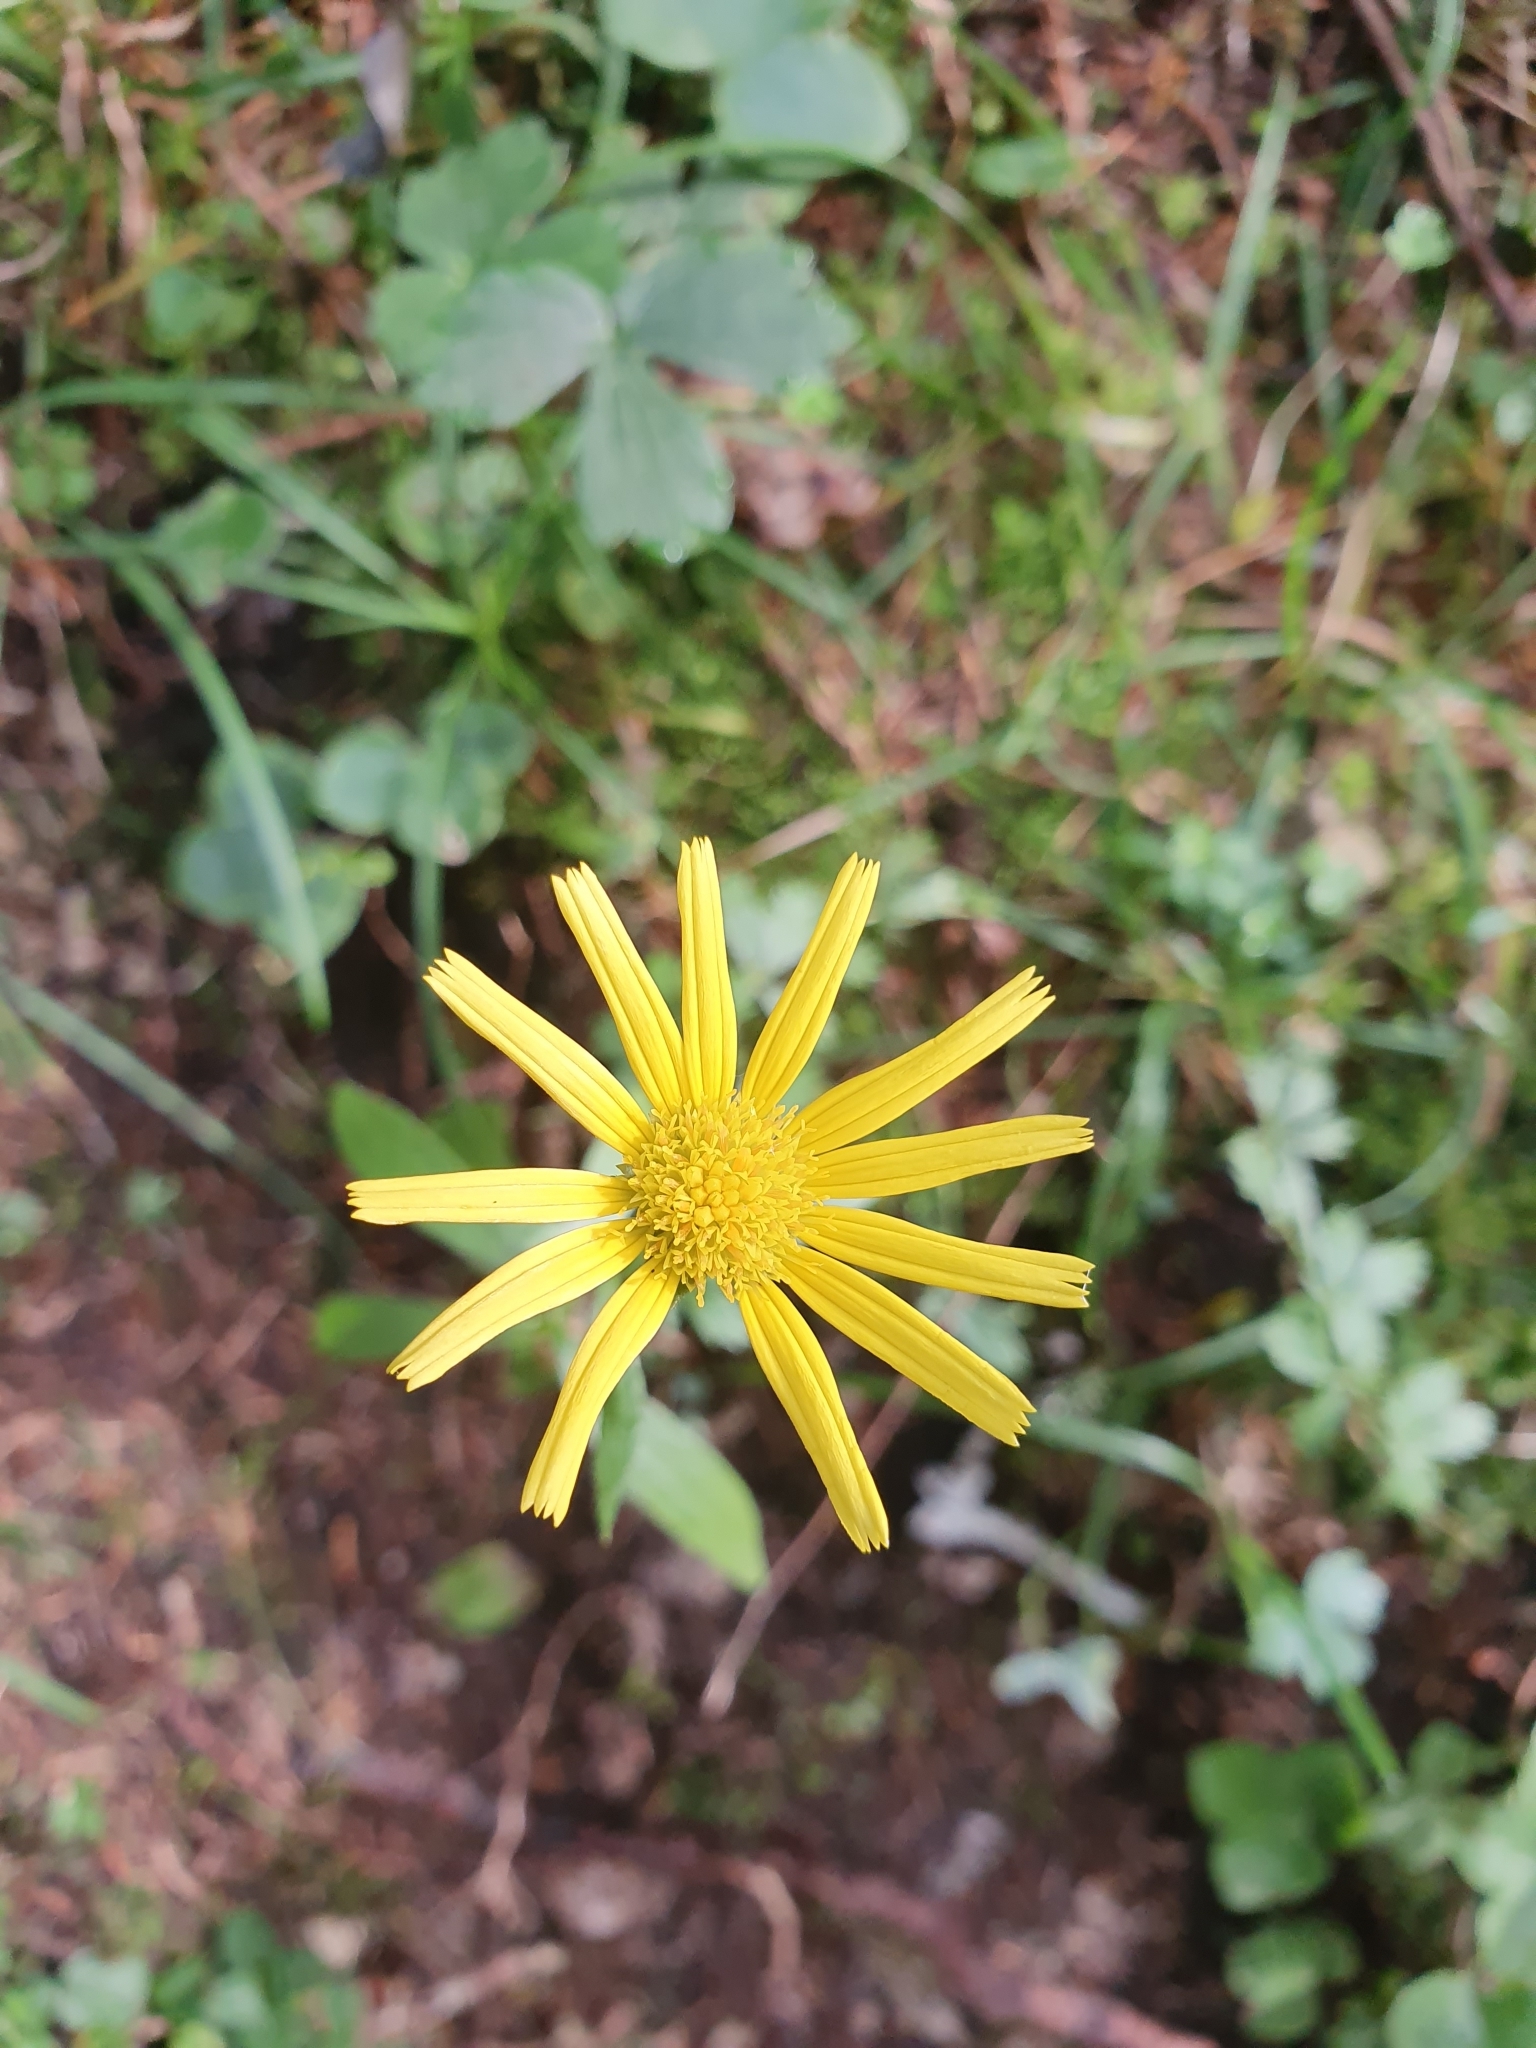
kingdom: Plantae
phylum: Tracheophyta
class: Magnoliopsida
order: Asterales
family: Asteraceae
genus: Buphthalmum
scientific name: Buphthalmum salicifolium
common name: Willow-leaved yellow-oxeye
